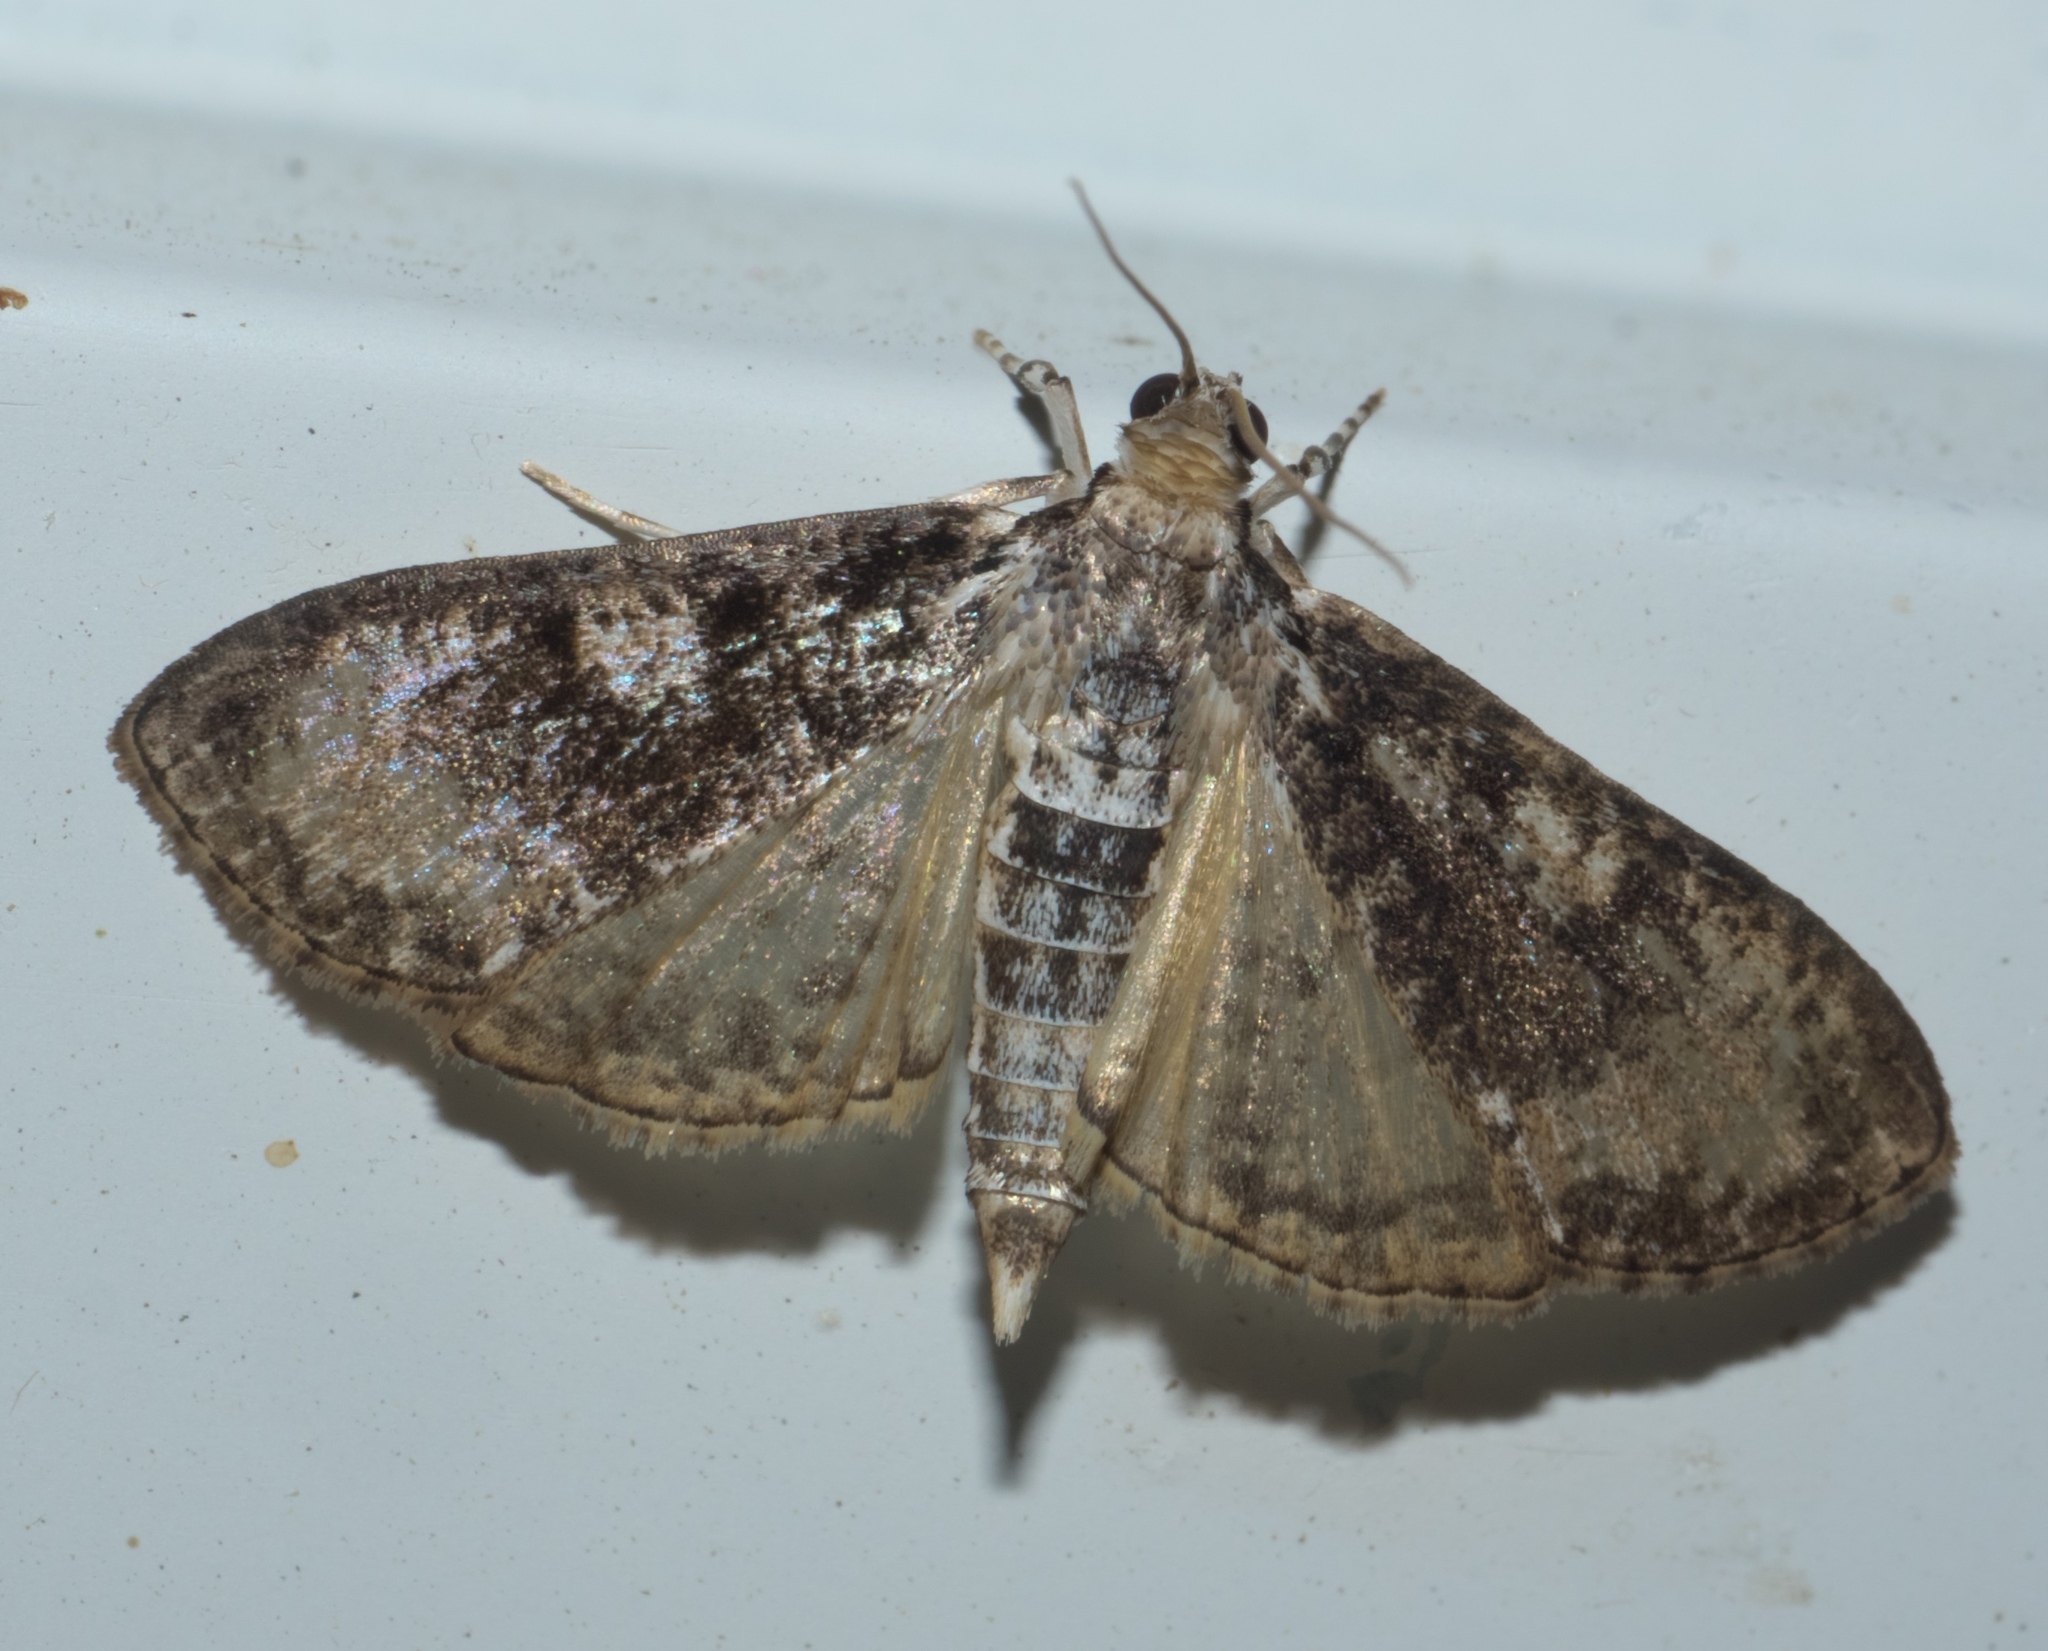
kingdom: Animalia
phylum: Arthropoda
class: Insecta
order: Lepidoptera
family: Crambidae
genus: Palpita
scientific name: Palpita magniferalis
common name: Splendid palpita moth
